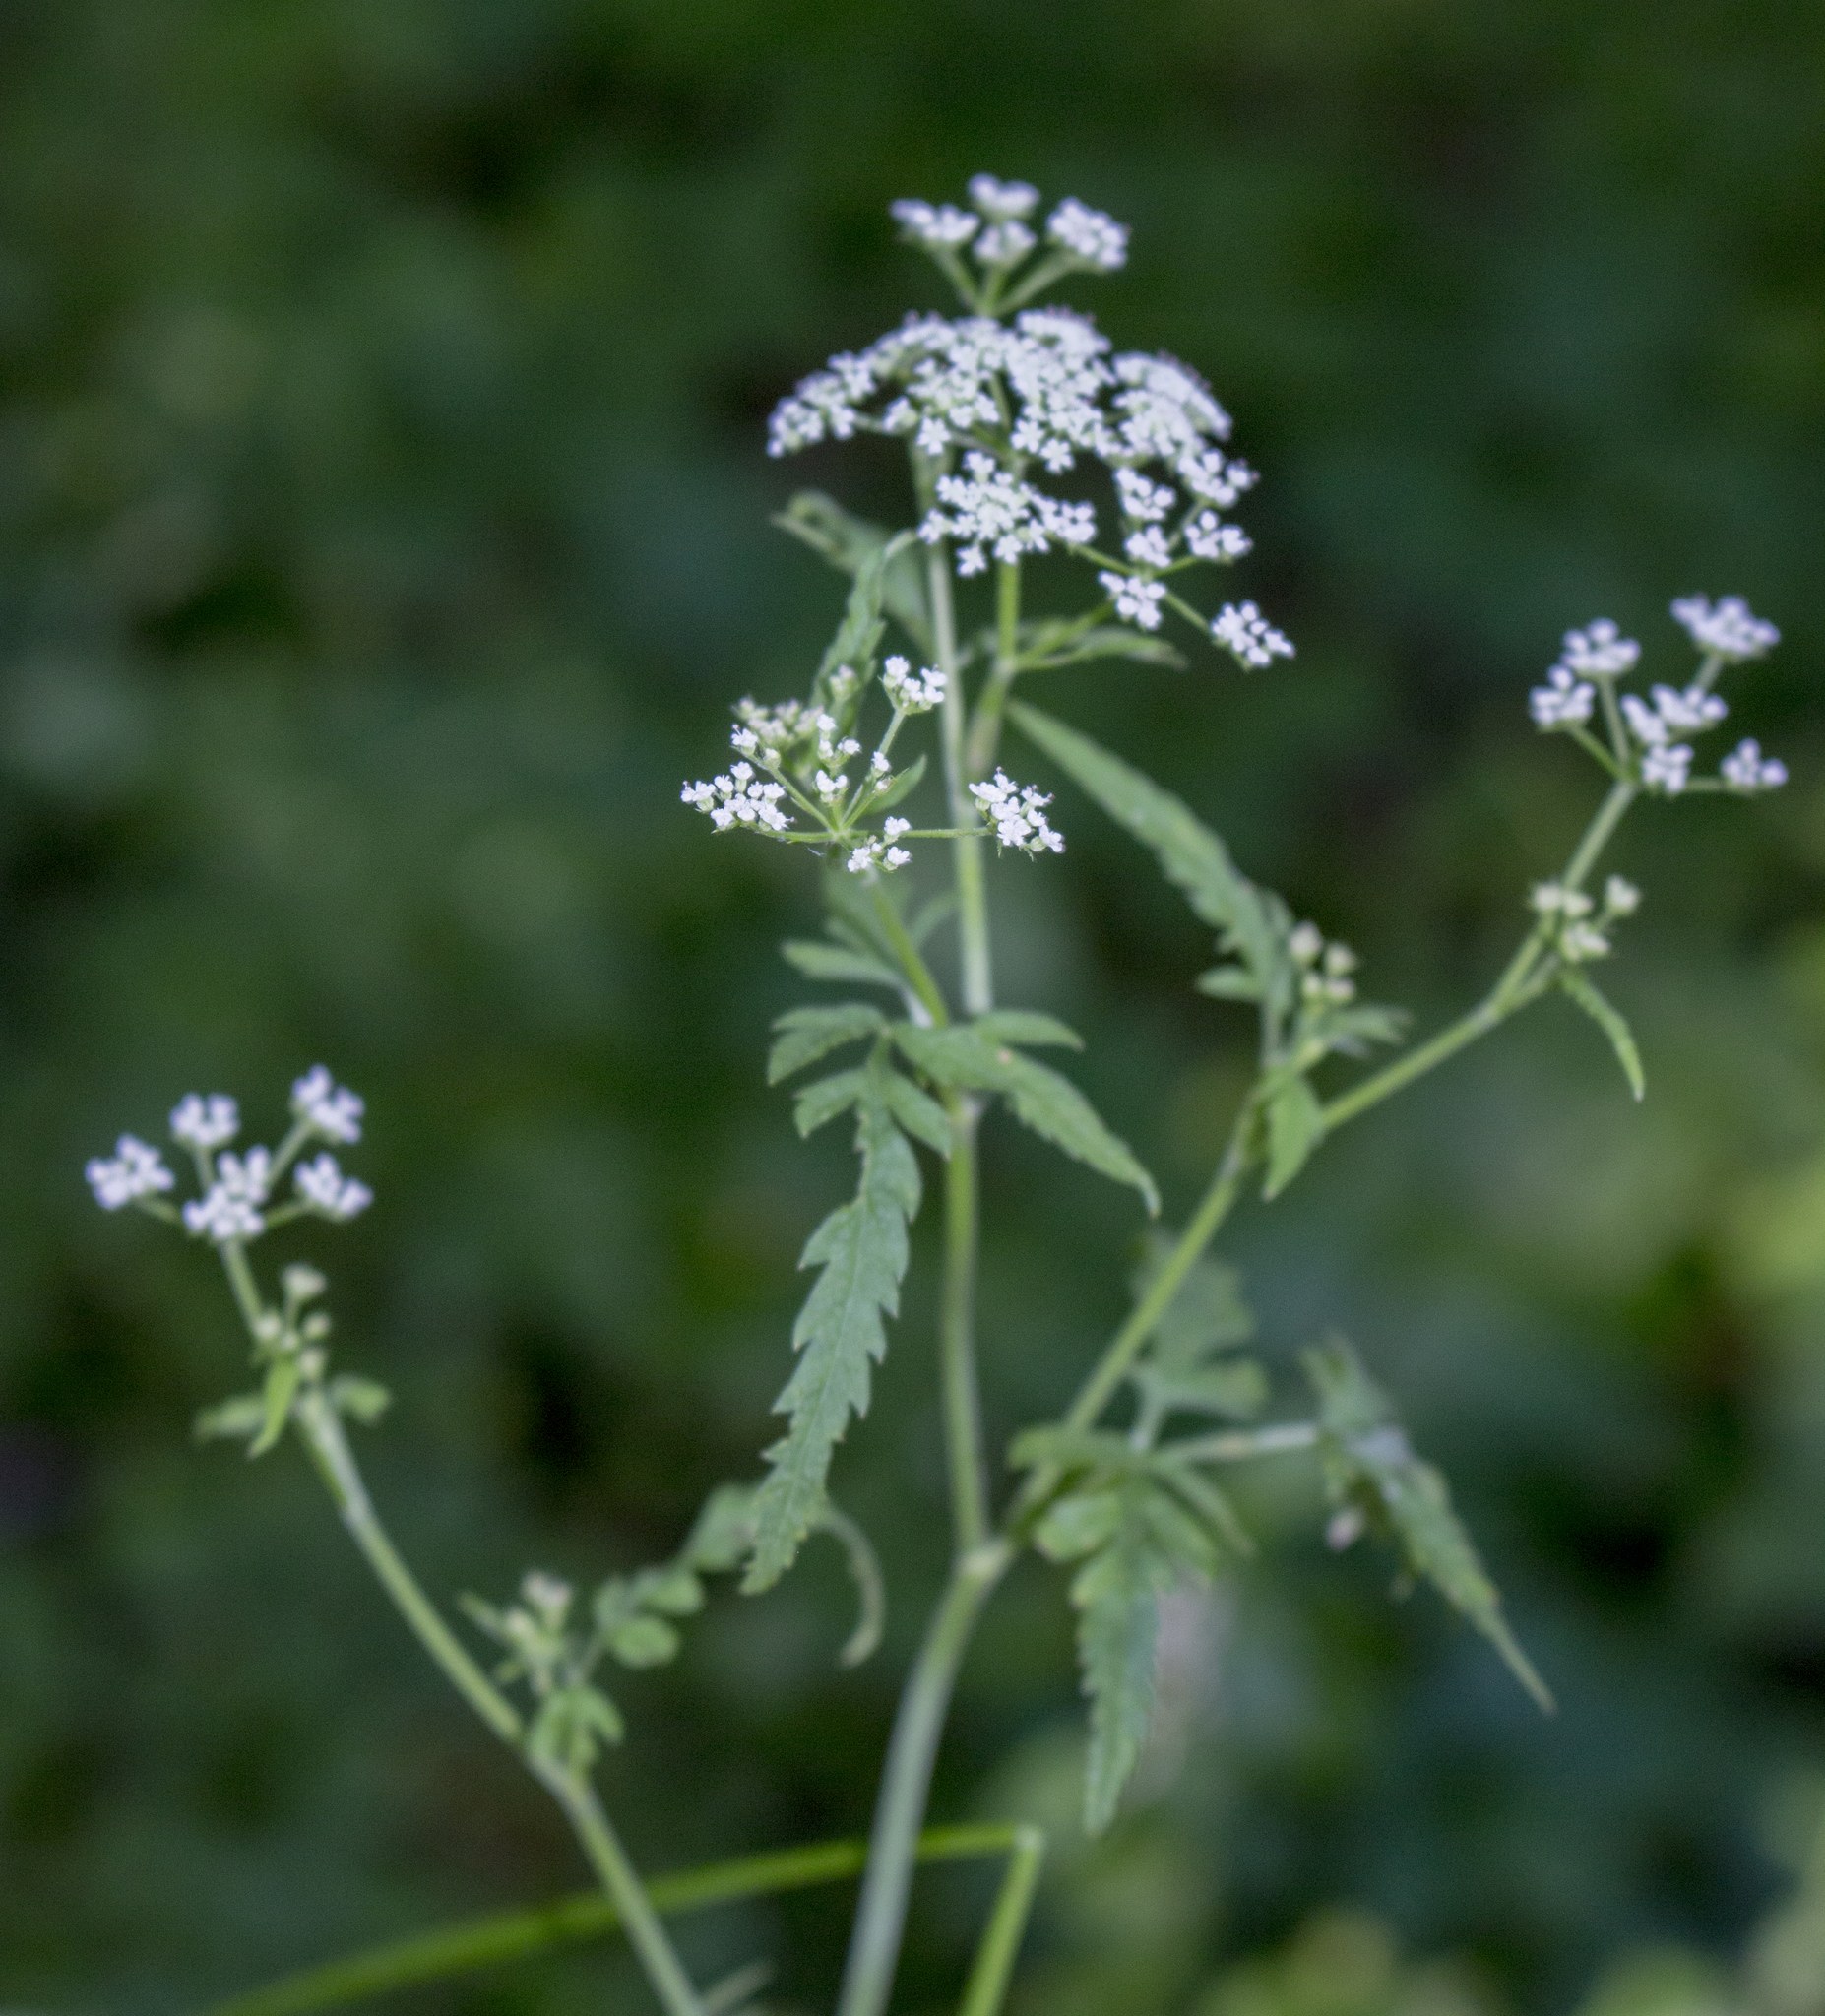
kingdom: Plantae
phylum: Tracheophyta
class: Magnoliopsida
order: Apiales
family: Apiaceae
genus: Torilis
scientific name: Torilis japonica
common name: Upright hedge-parsley
